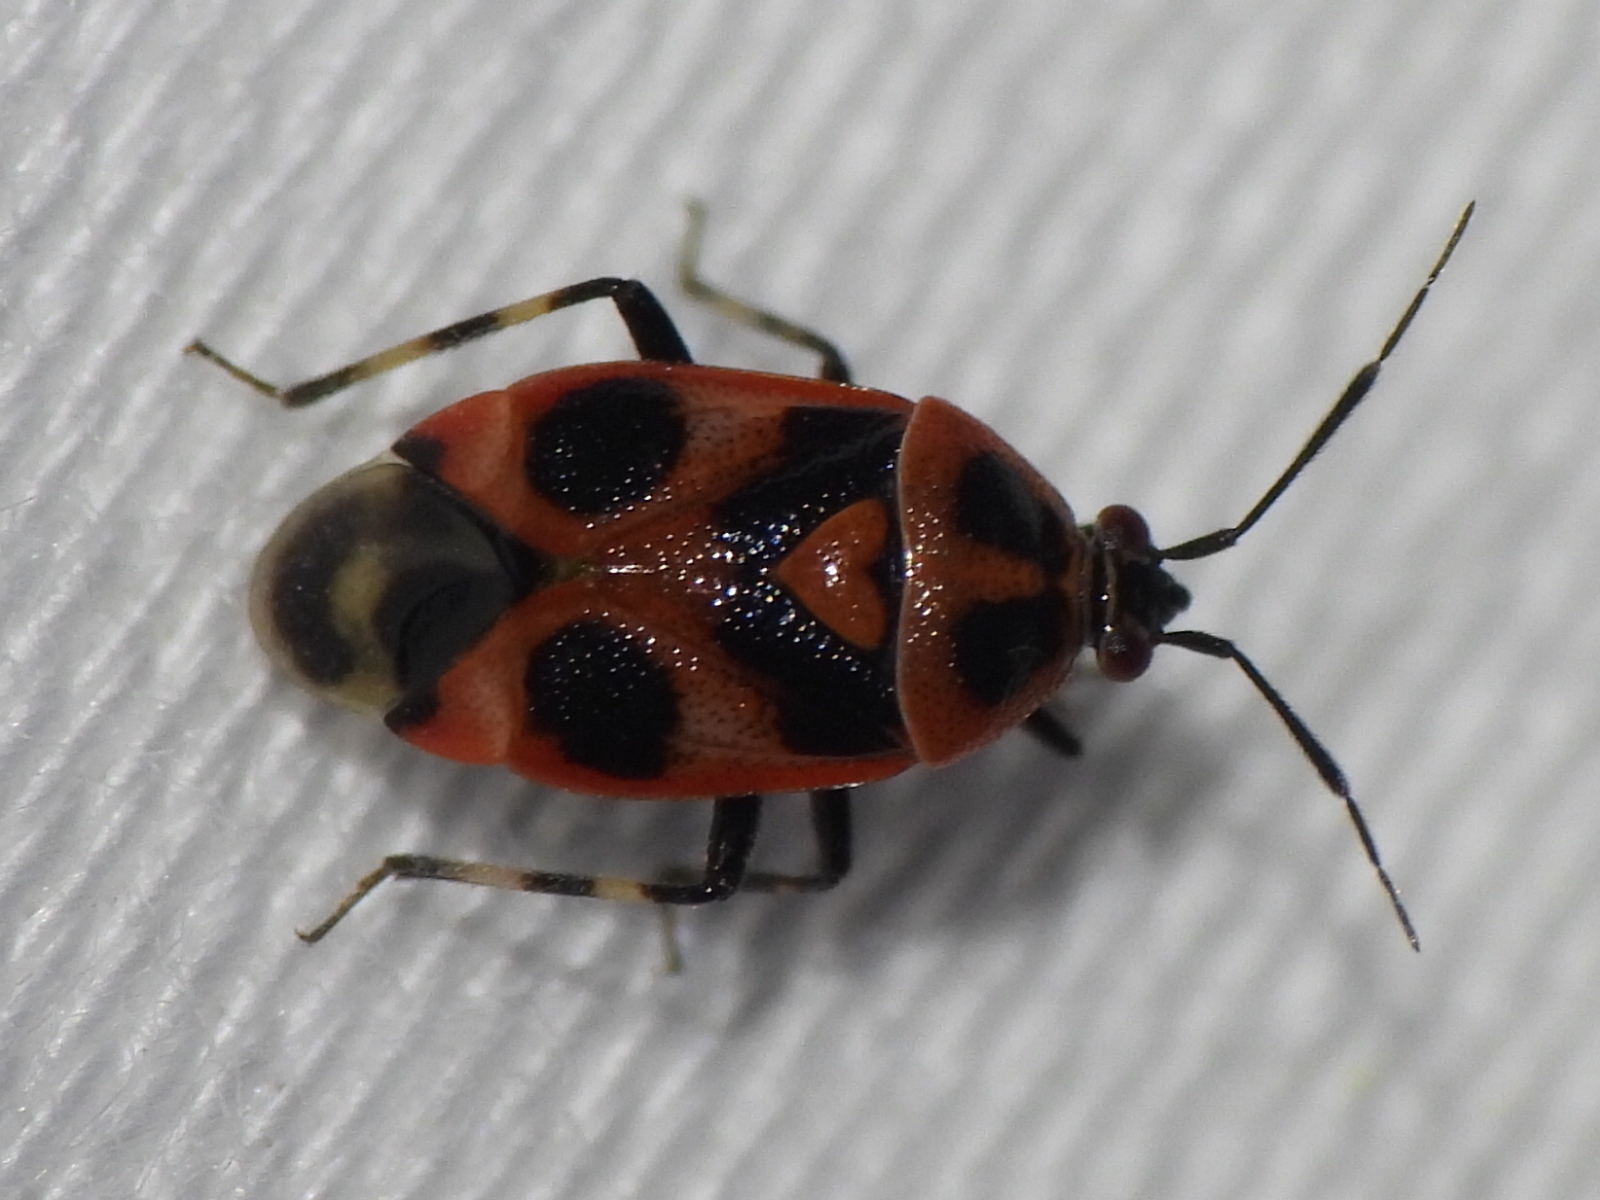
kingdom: Animalia
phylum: Arthropoda
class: Insecta
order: Hemiptera
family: Miridae
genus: Deraeocoris
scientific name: Deraeocoris histrio
